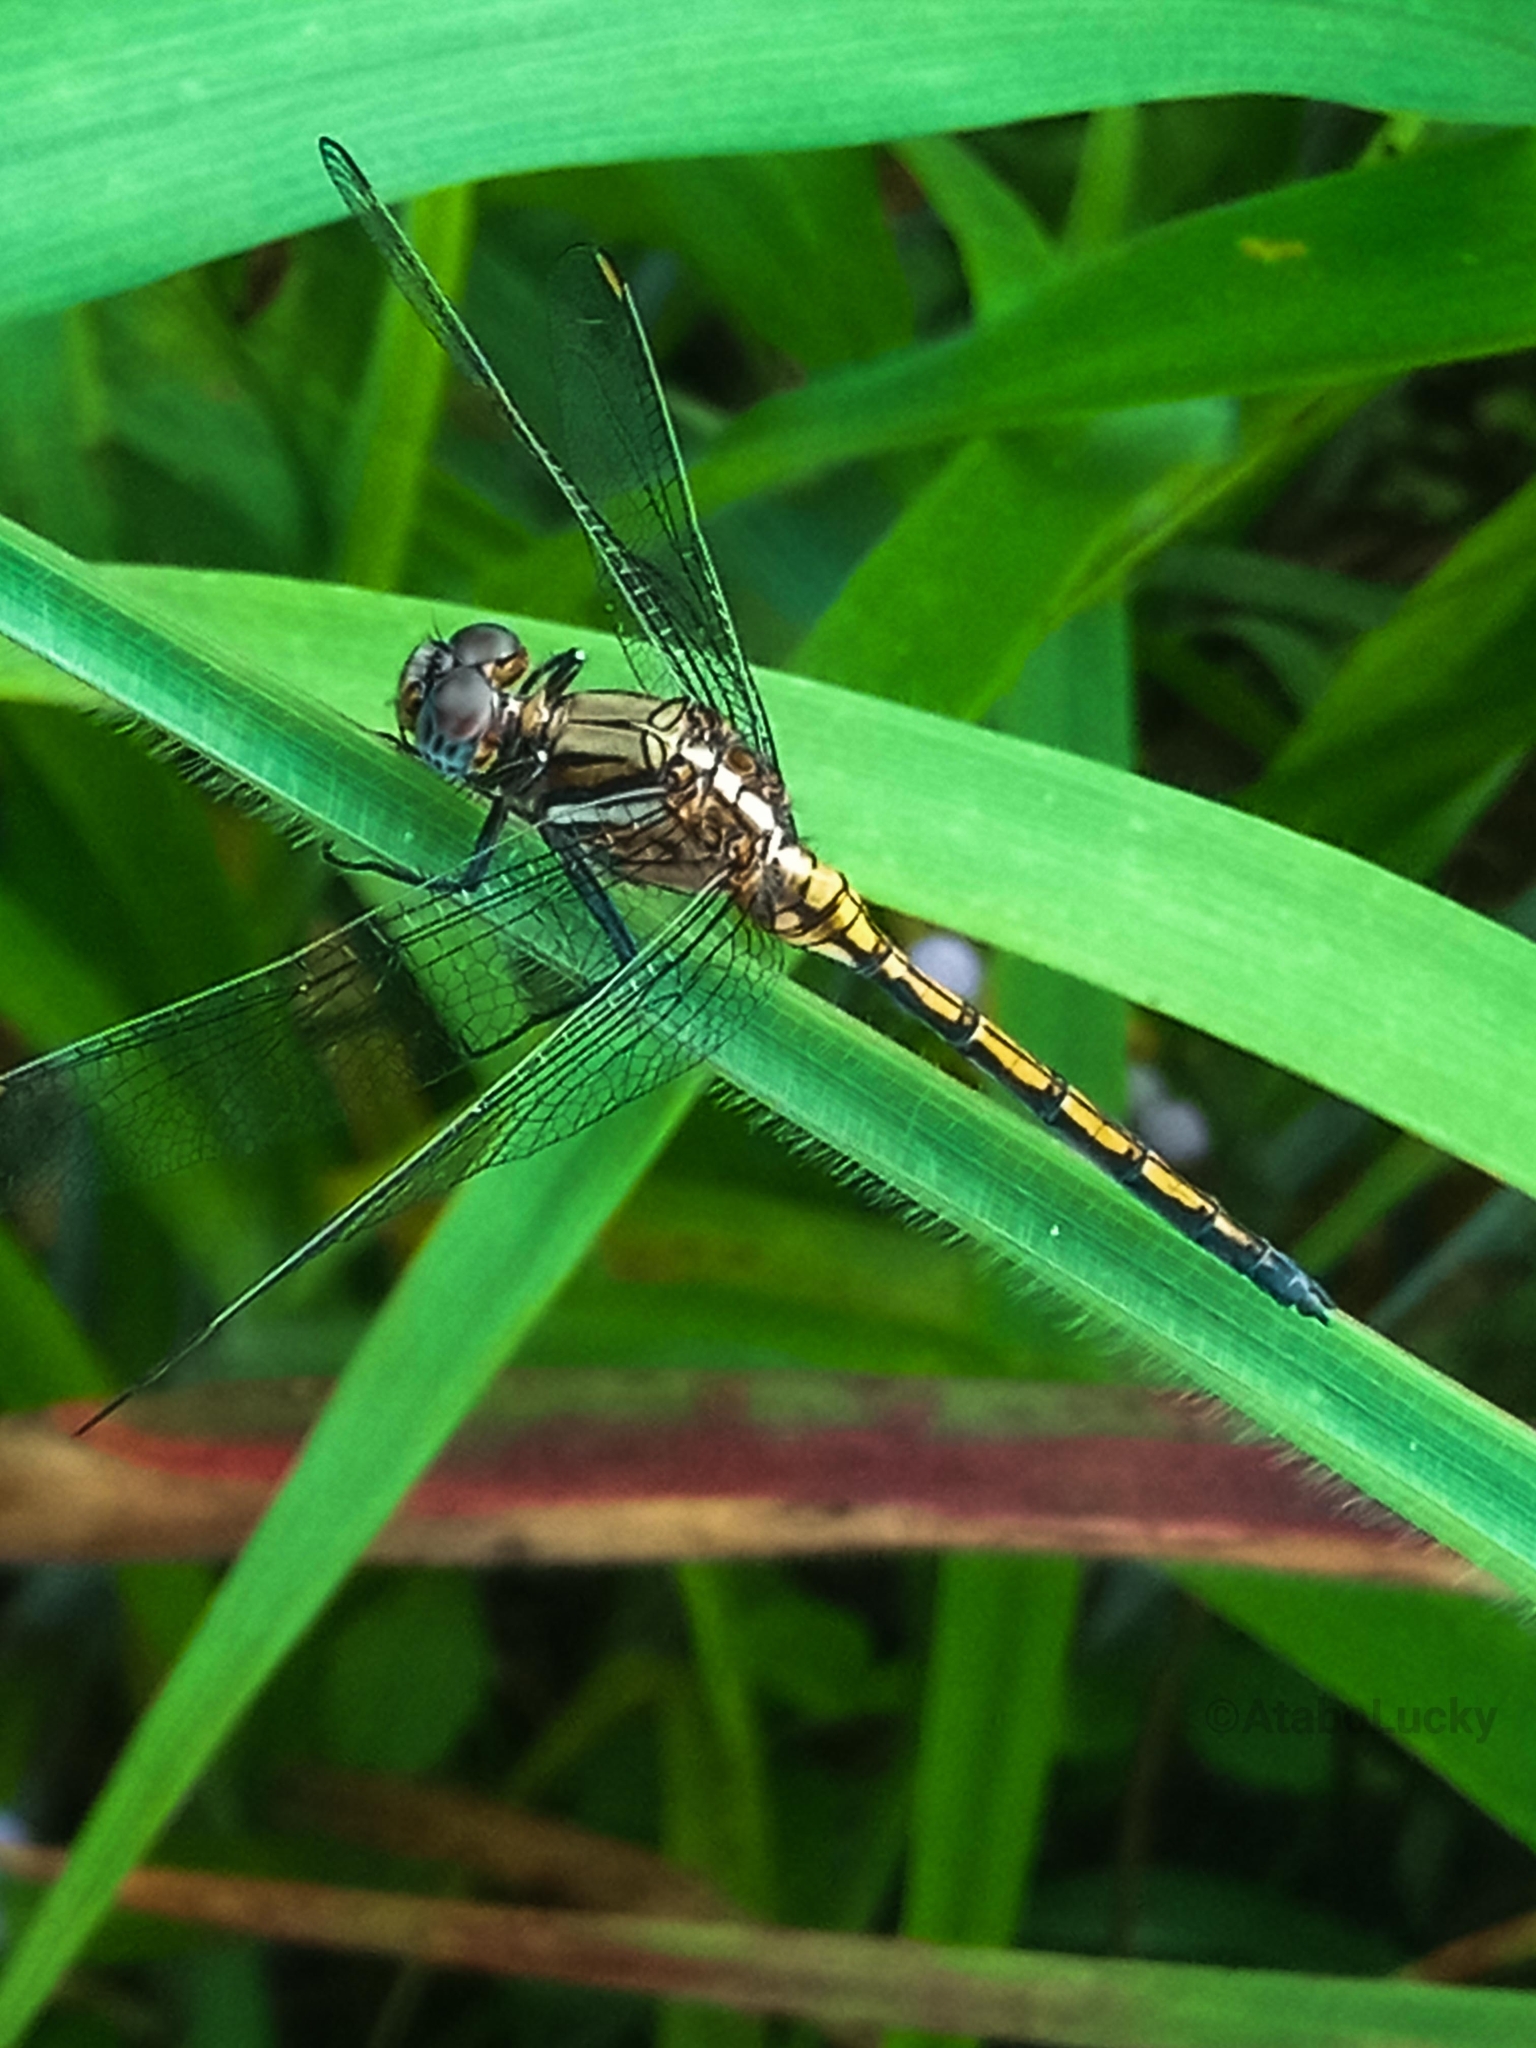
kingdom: Animalia
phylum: Arthropoda
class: Insecta
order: Odonata
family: Libellulidae
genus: Orthetrum
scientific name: Orthetrum chrysostigma
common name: Epaulet skimmer
